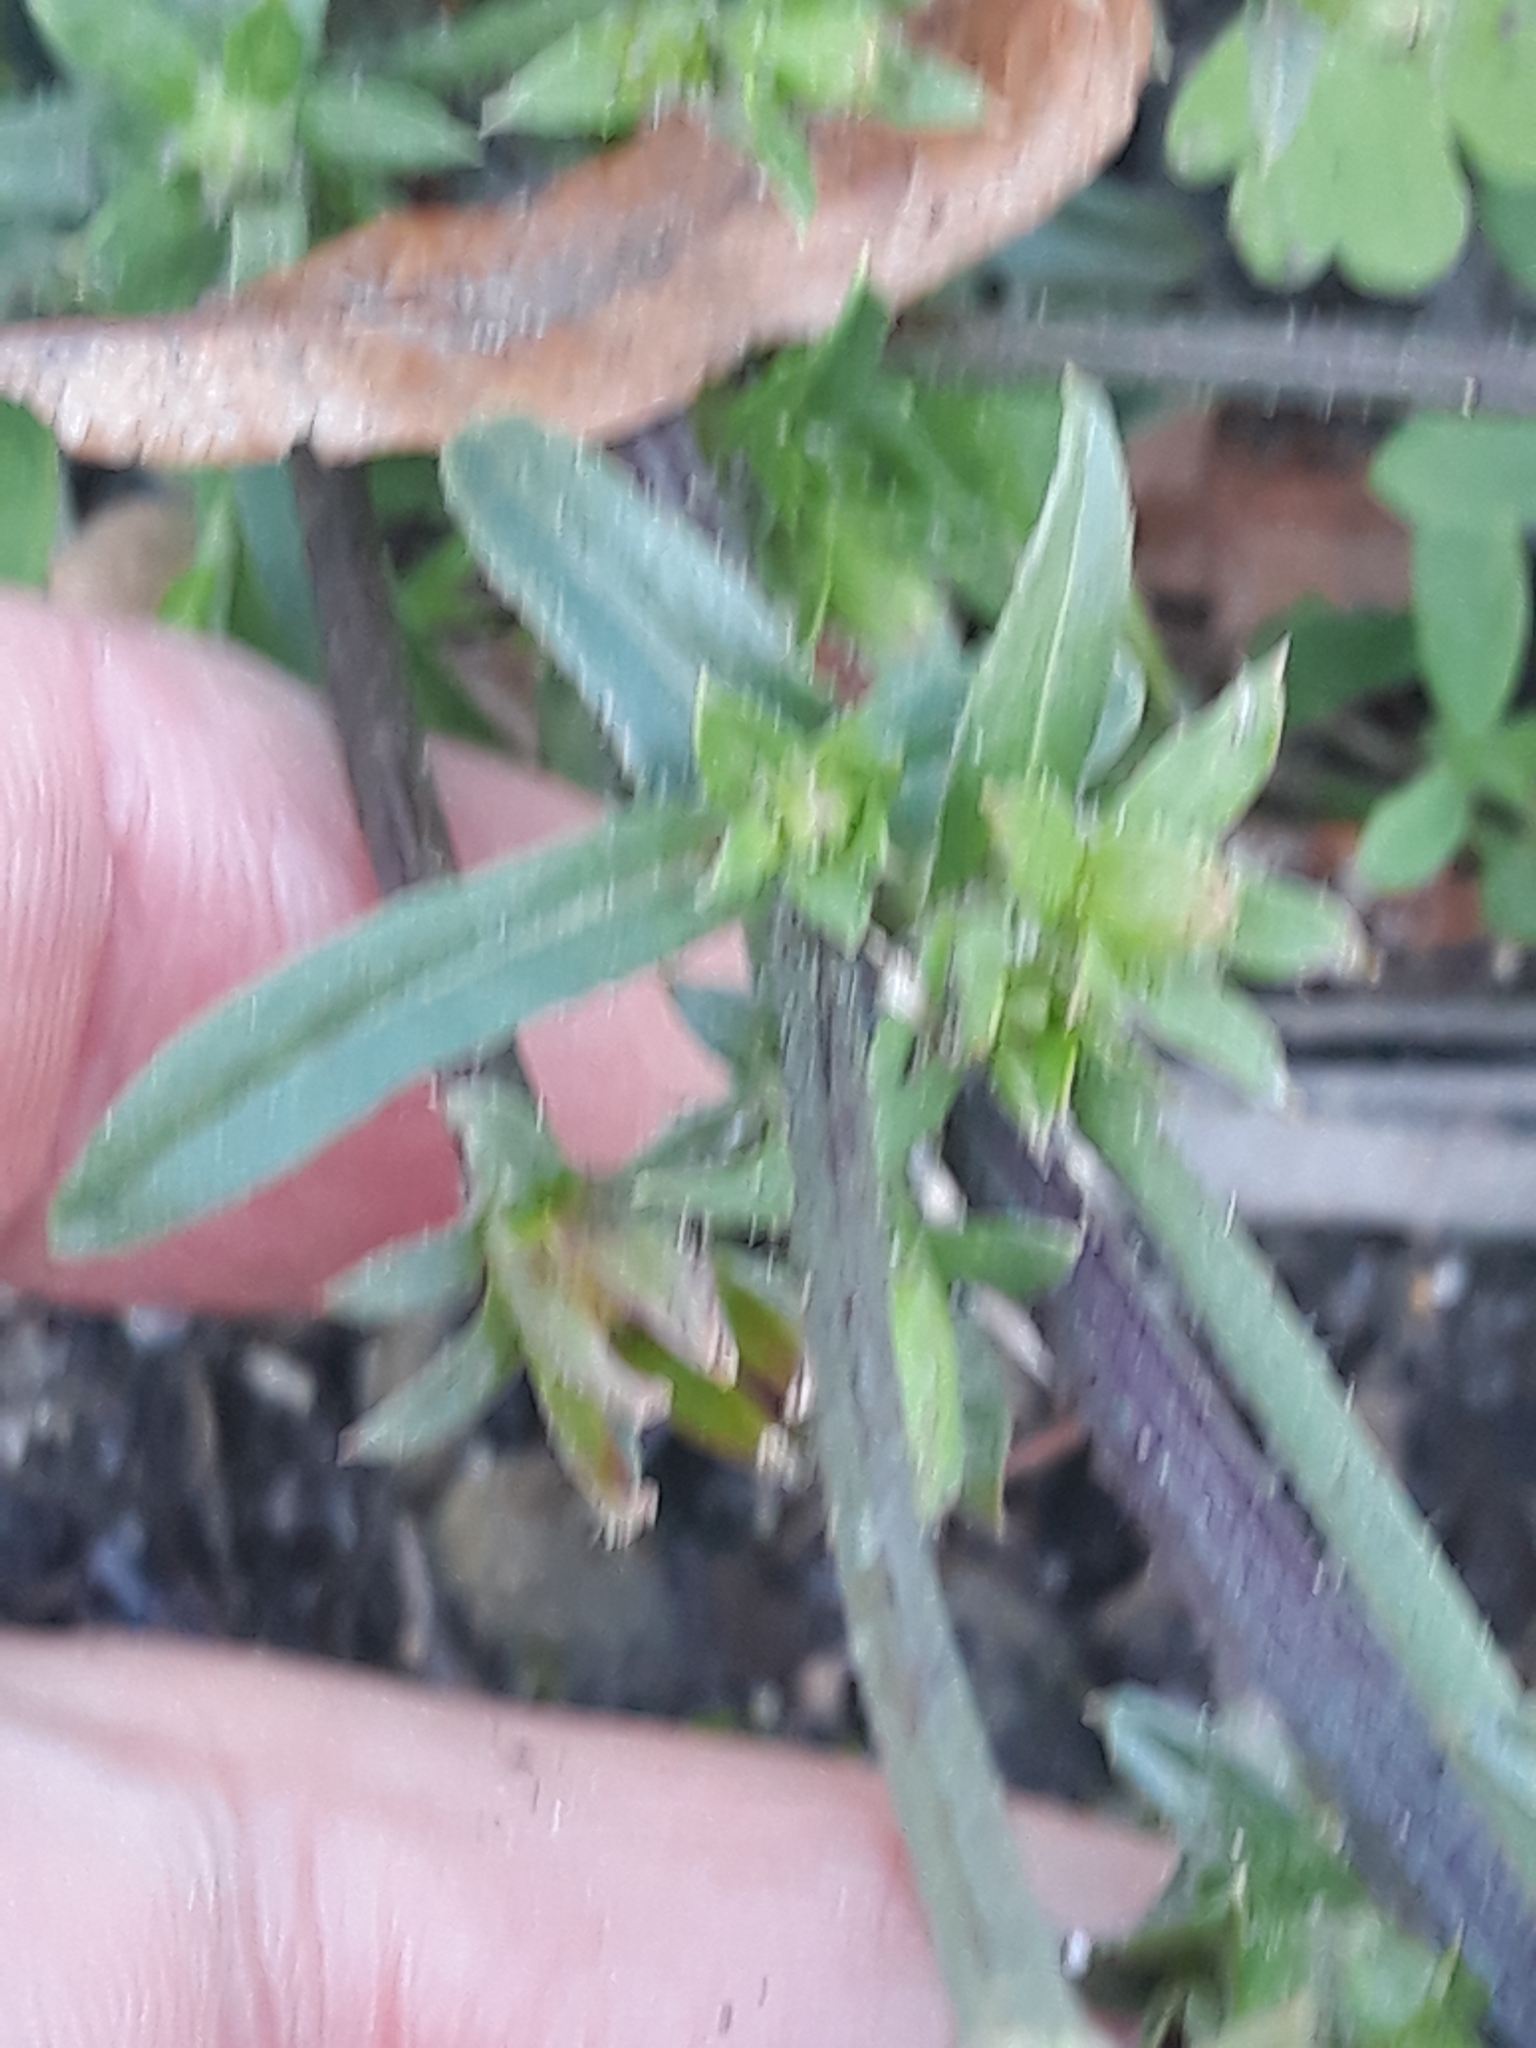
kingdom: Plantae
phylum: Tracheophyta
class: Magnoliopsida
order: Asterales
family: Asteraceae
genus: Cichorium
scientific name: Cichorium intybus
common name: Chicory
